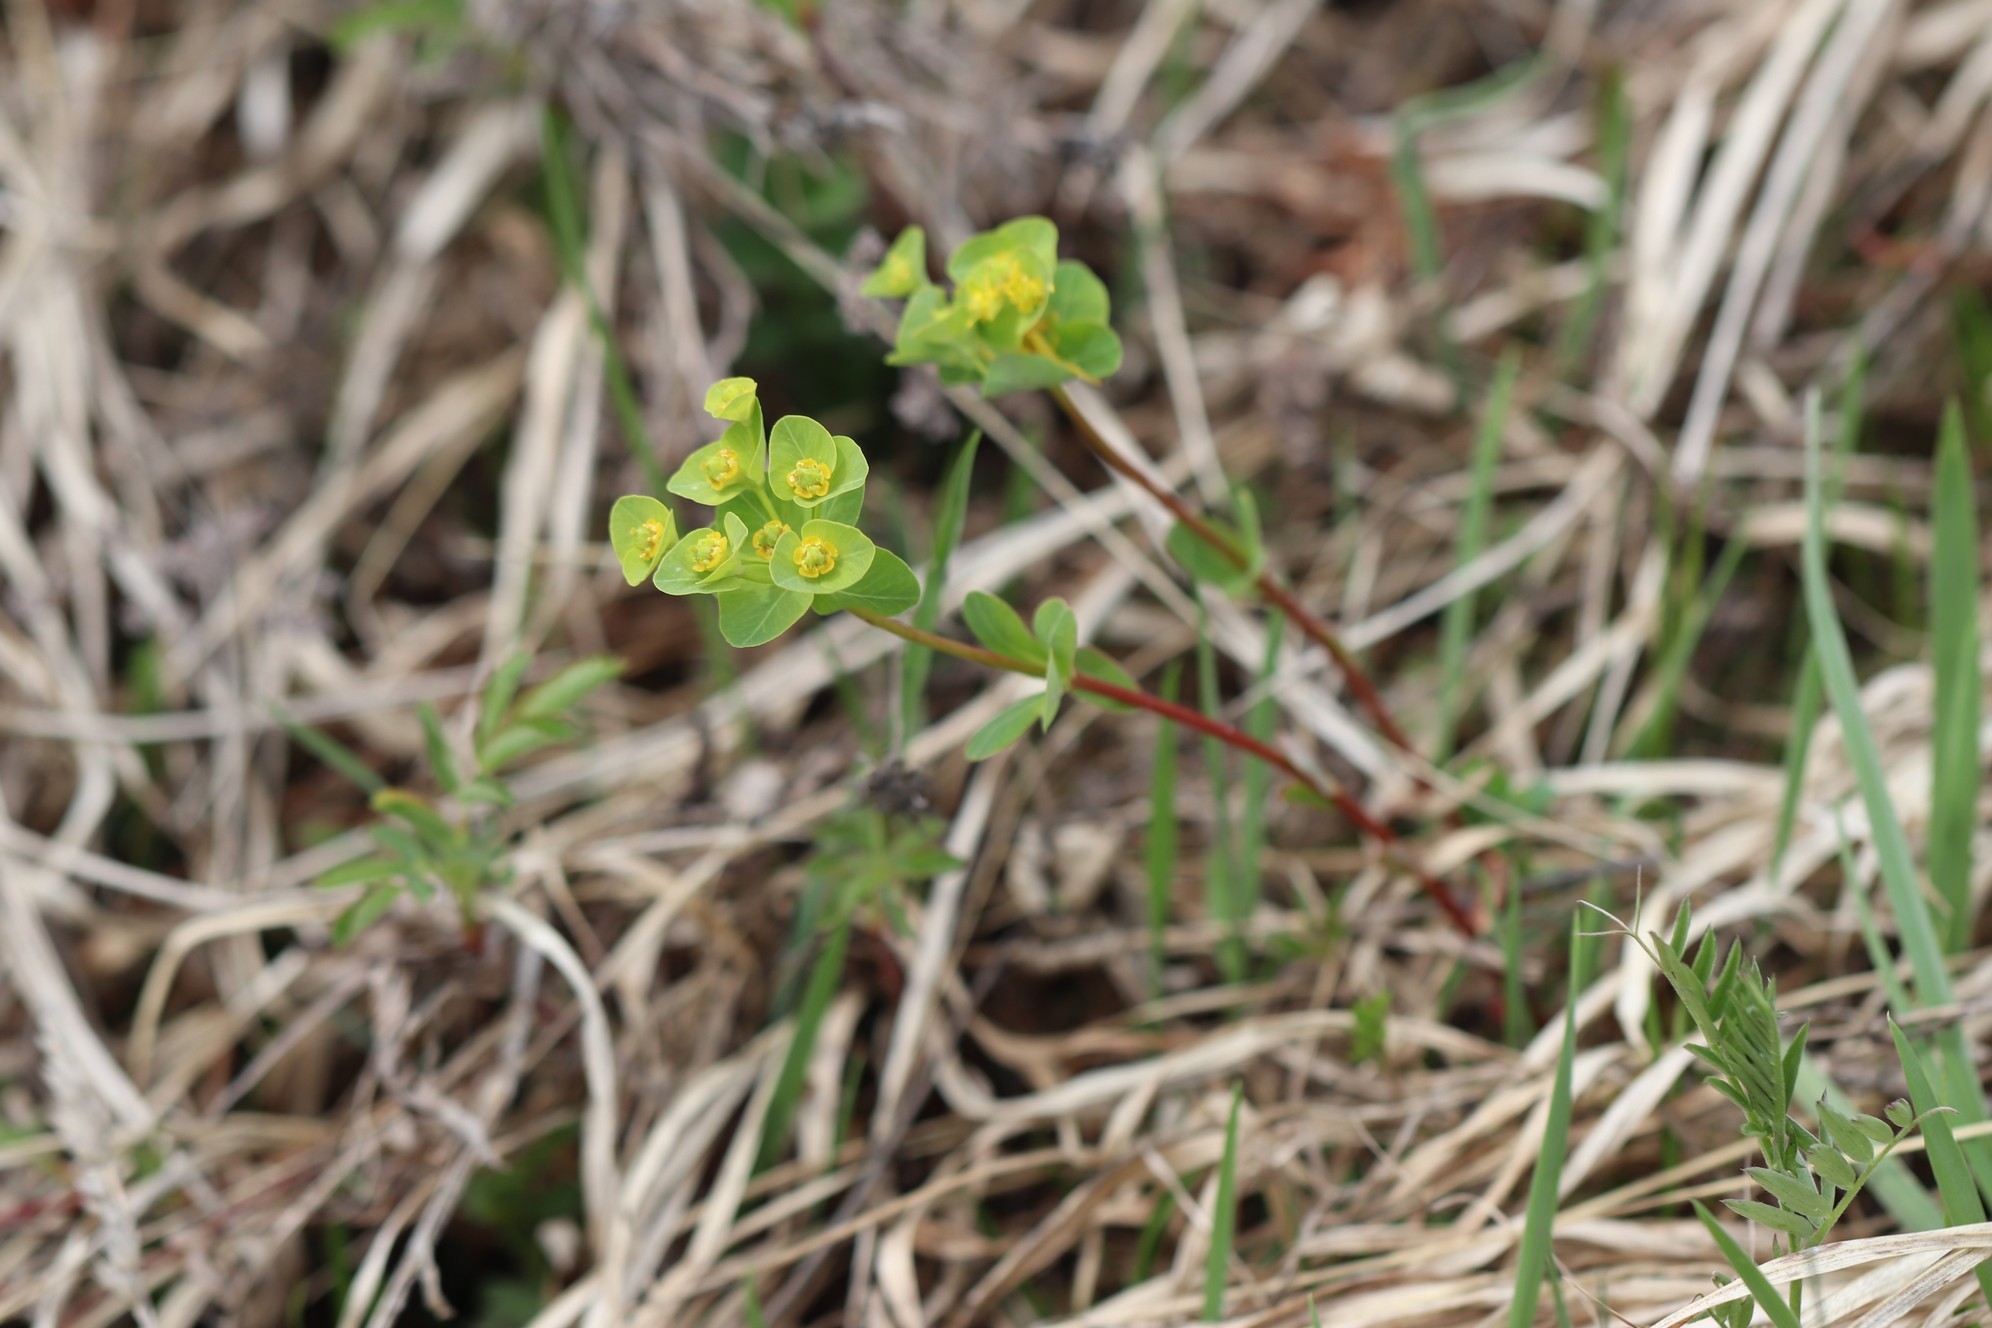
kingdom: Plantae
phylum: Tracheophyta
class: Magnoliopsida
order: Malpighiales
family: Euphorbiaceae
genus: Euphorbia
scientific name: Euphorbia altaica
